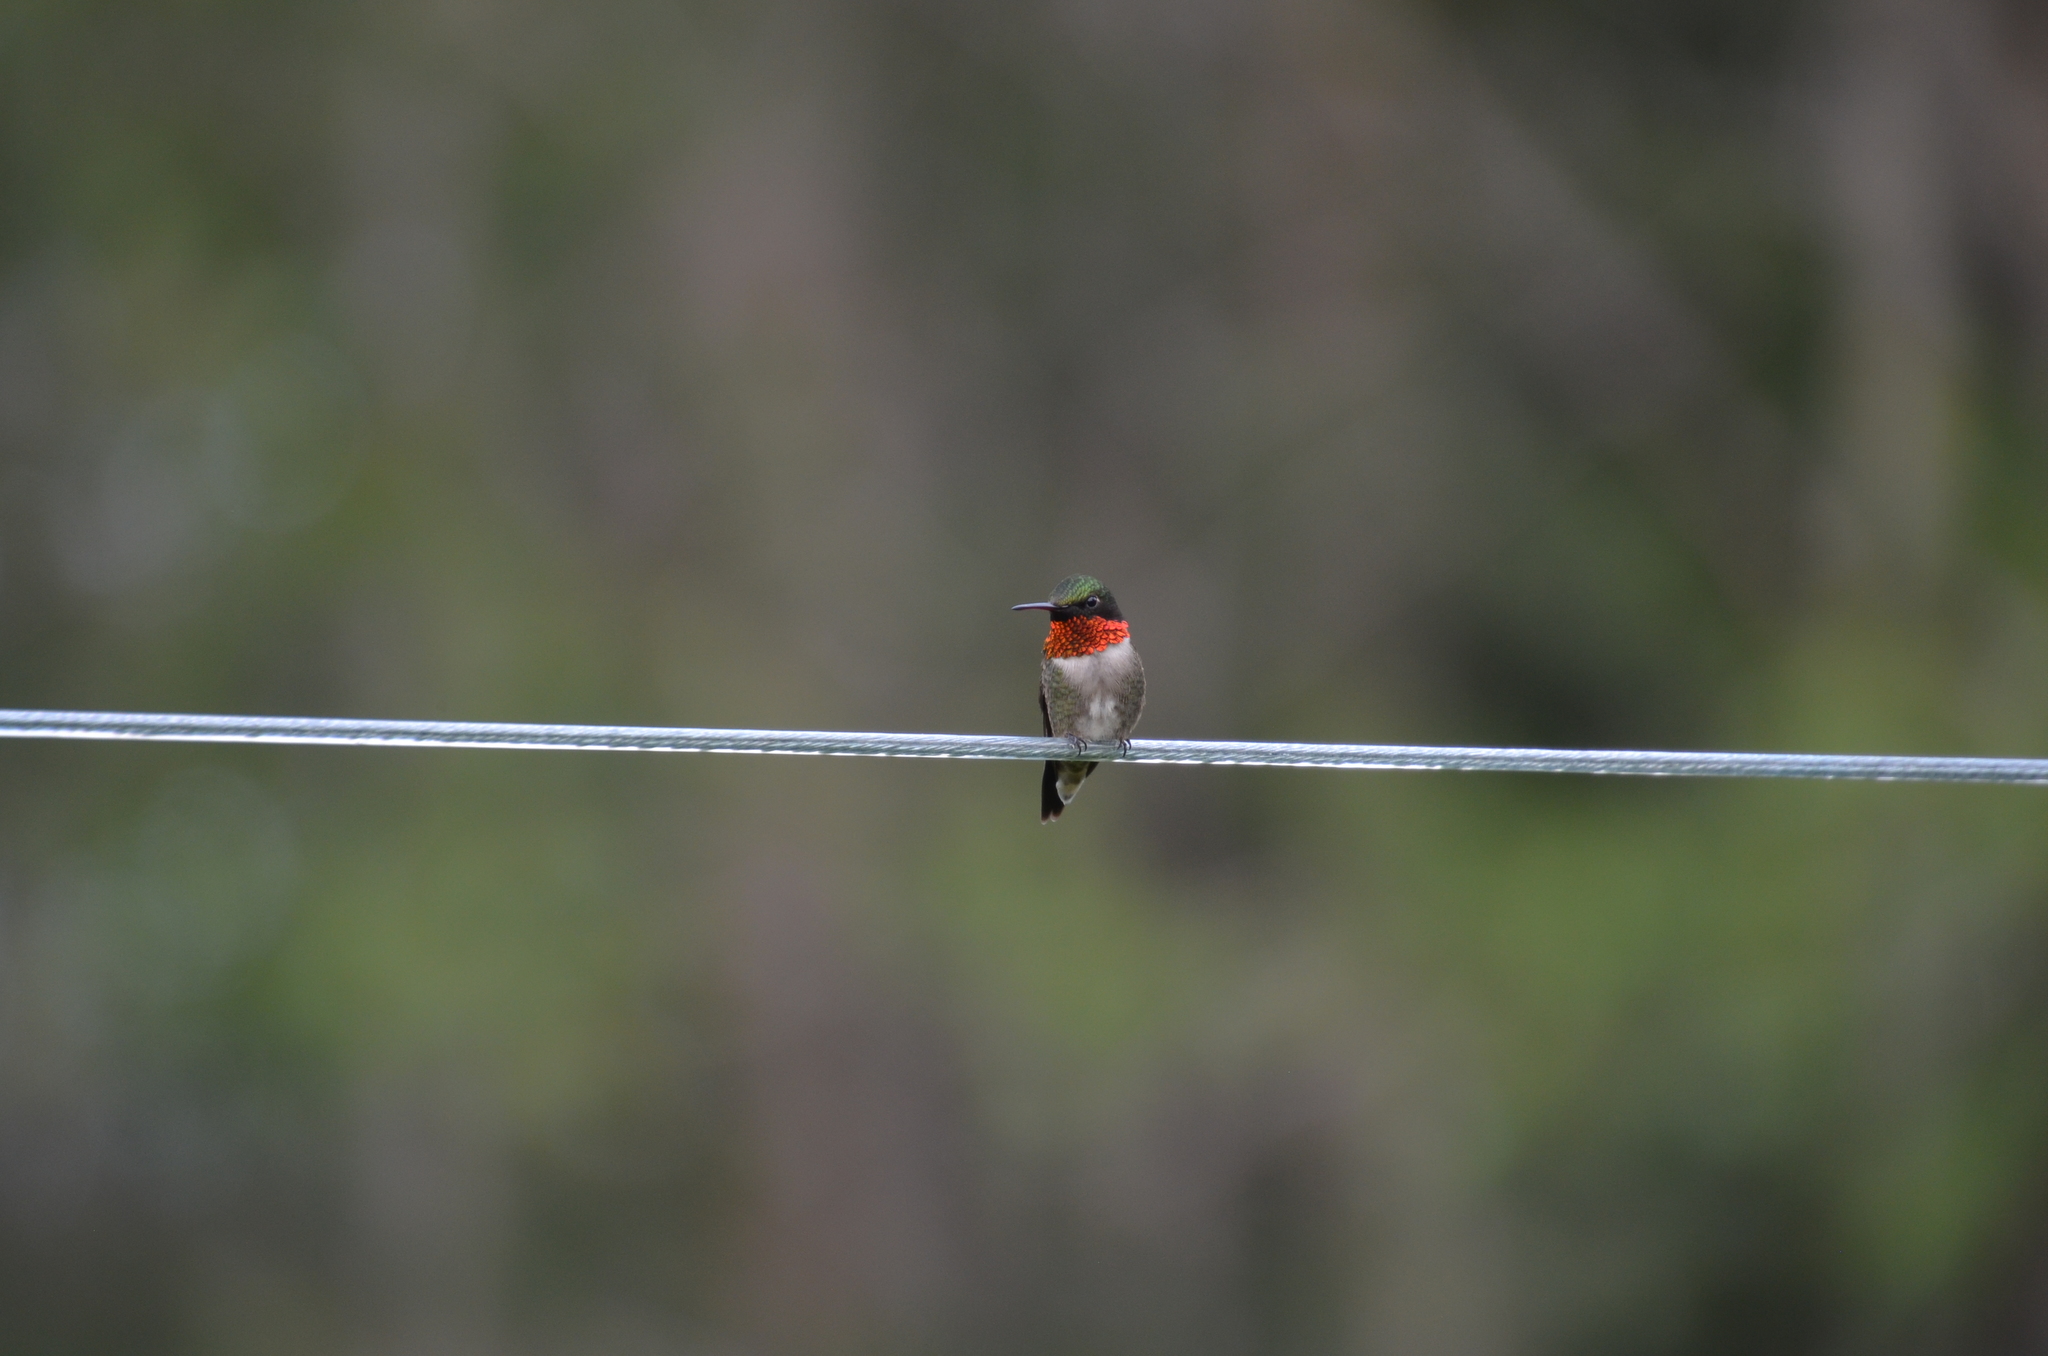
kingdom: Animalia
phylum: Chordata
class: Aves
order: Apodiformes
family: Trochilidae
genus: Archilochus
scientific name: Archilochus colubris
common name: Ruby-throated hummingbird
